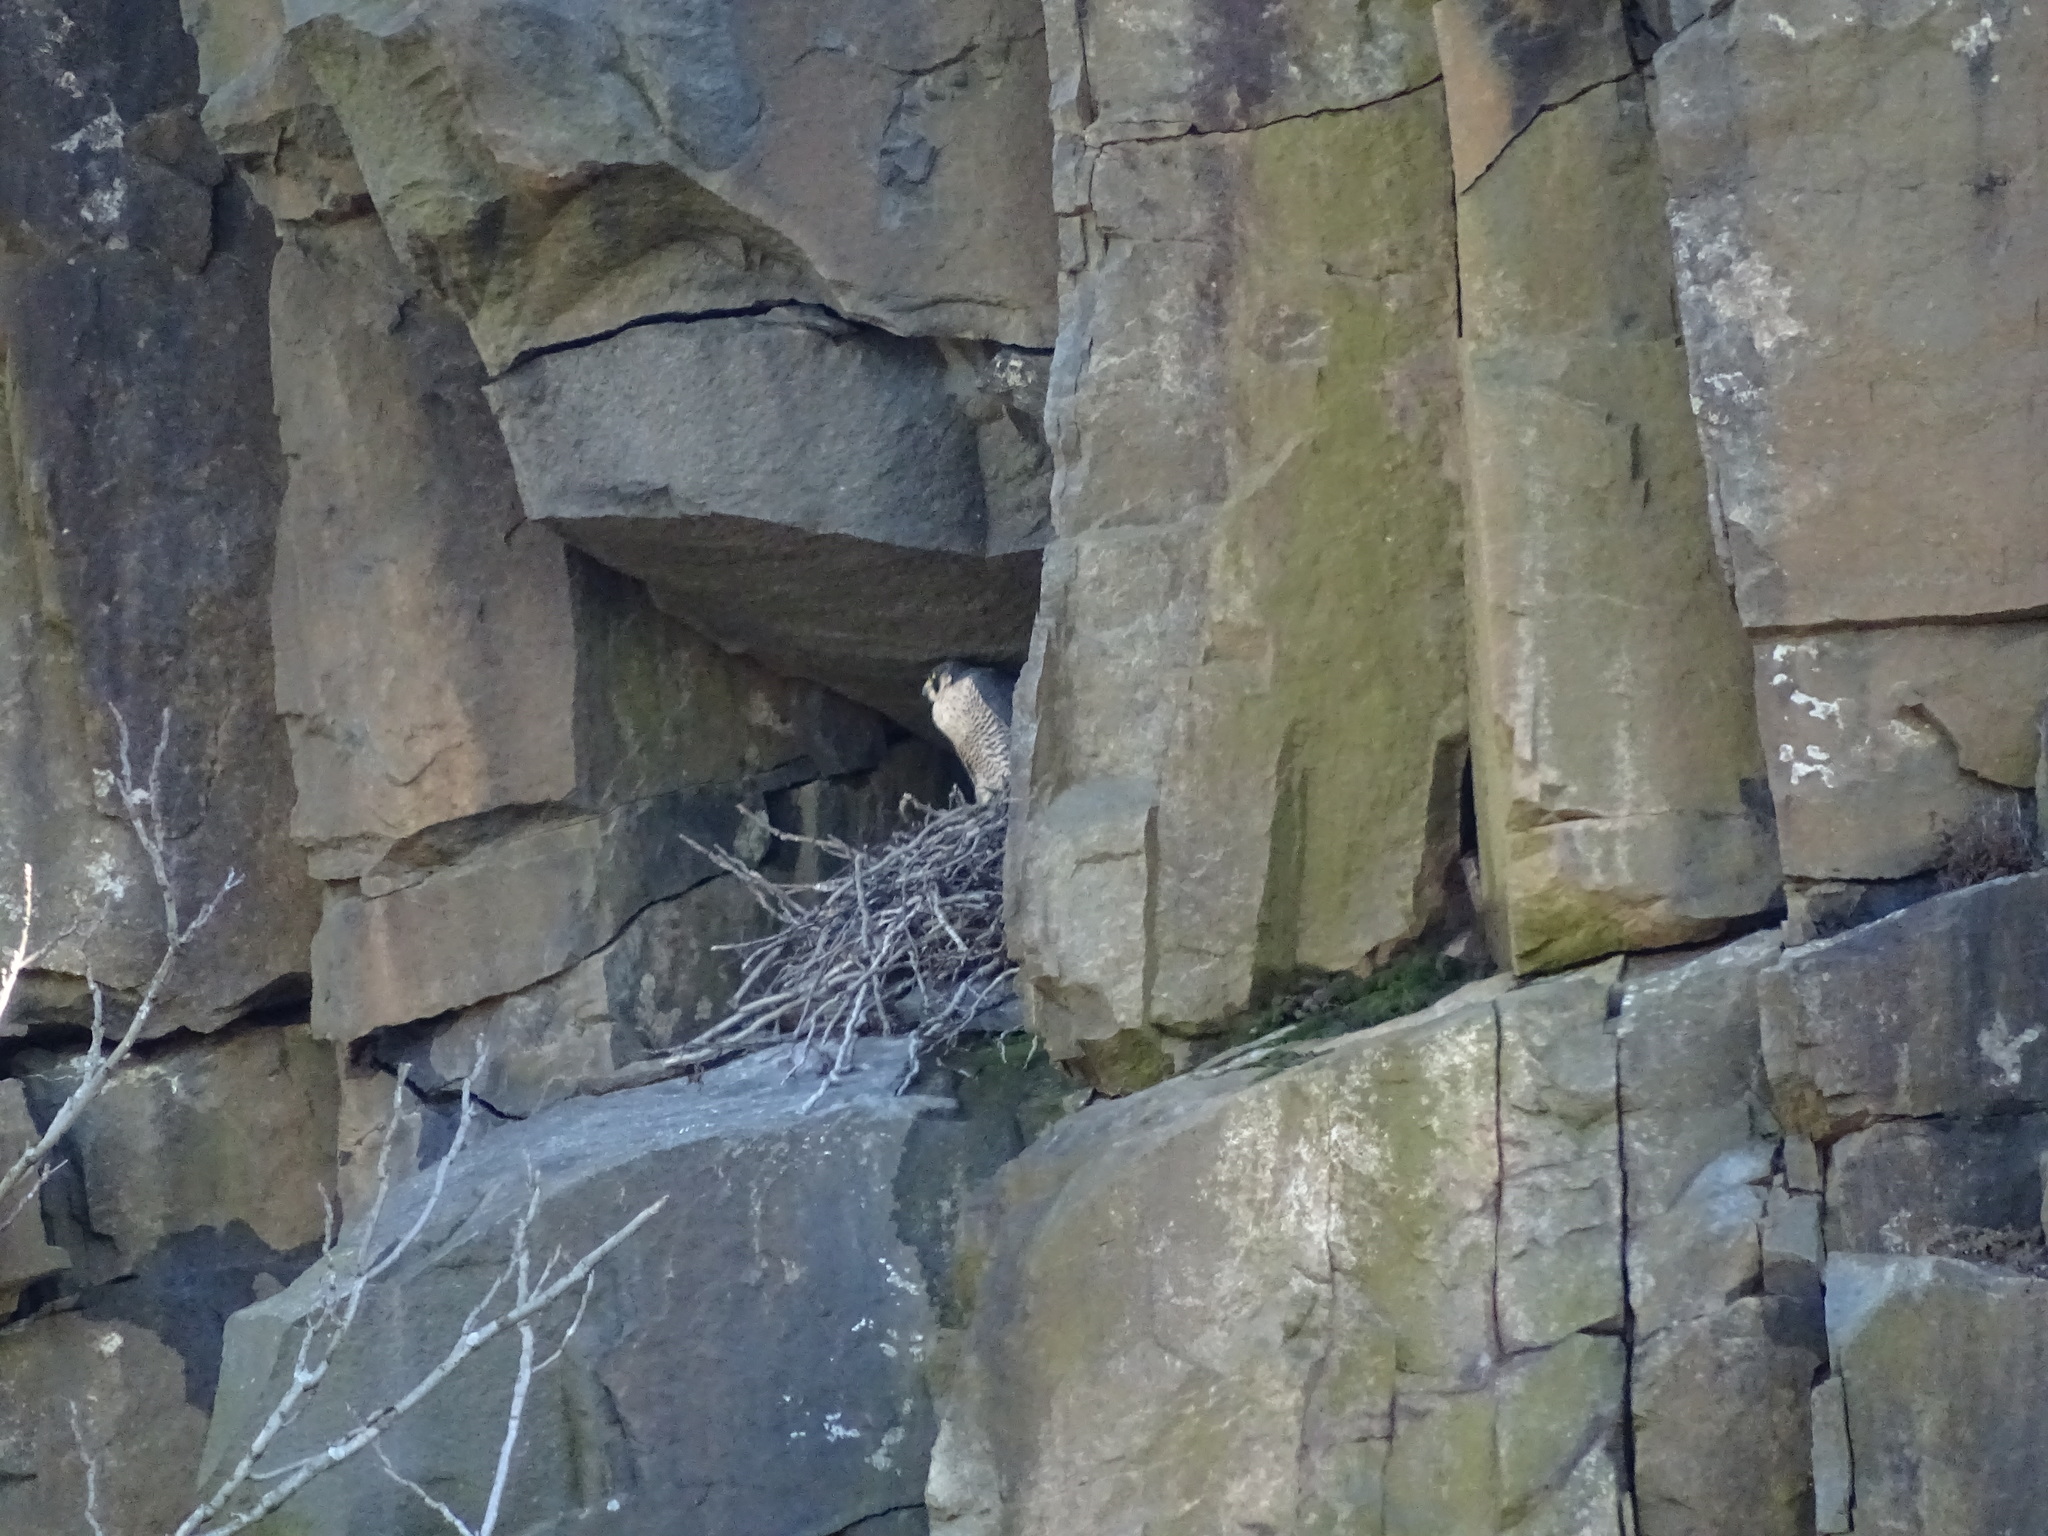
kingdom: Animalia
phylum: Chordata
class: Aves
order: Falconiformes
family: Falconidae
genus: Falco
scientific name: Falco peregrinus
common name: Peregrine falcon
